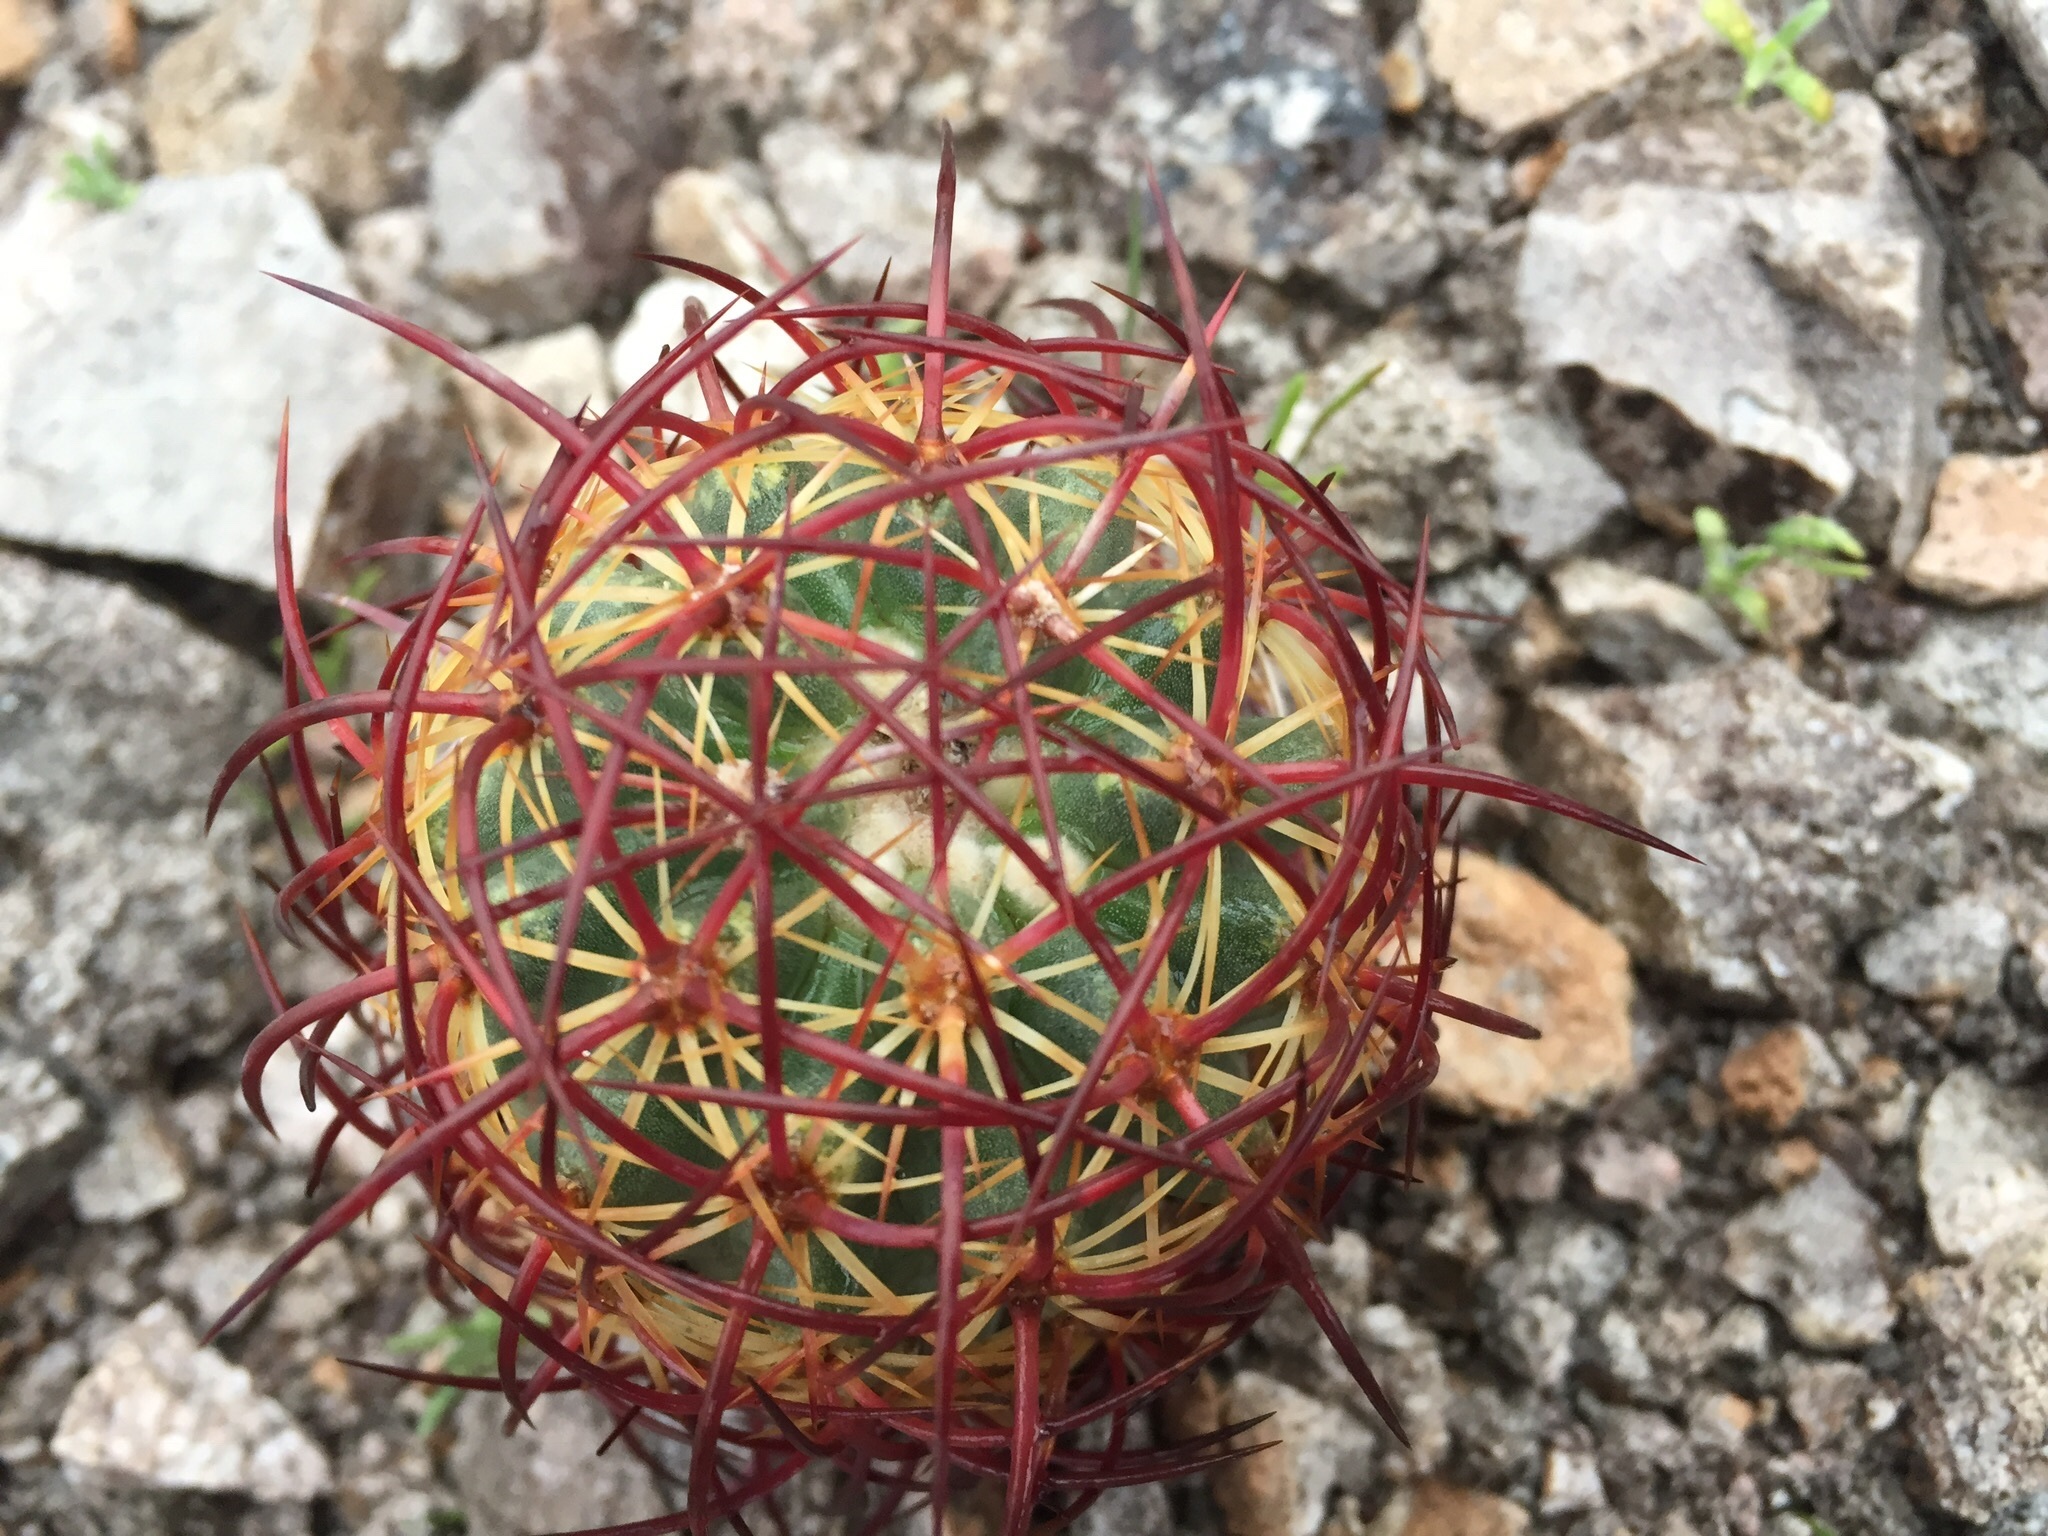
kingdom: Plantae
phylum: Tracheophyta
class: Magnoliopsida
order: Caryophyllales
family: Cactaceae
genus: Sclerocactus
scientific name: Sclerocactus johnsonii
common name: Eight-spine fishhook cactus
